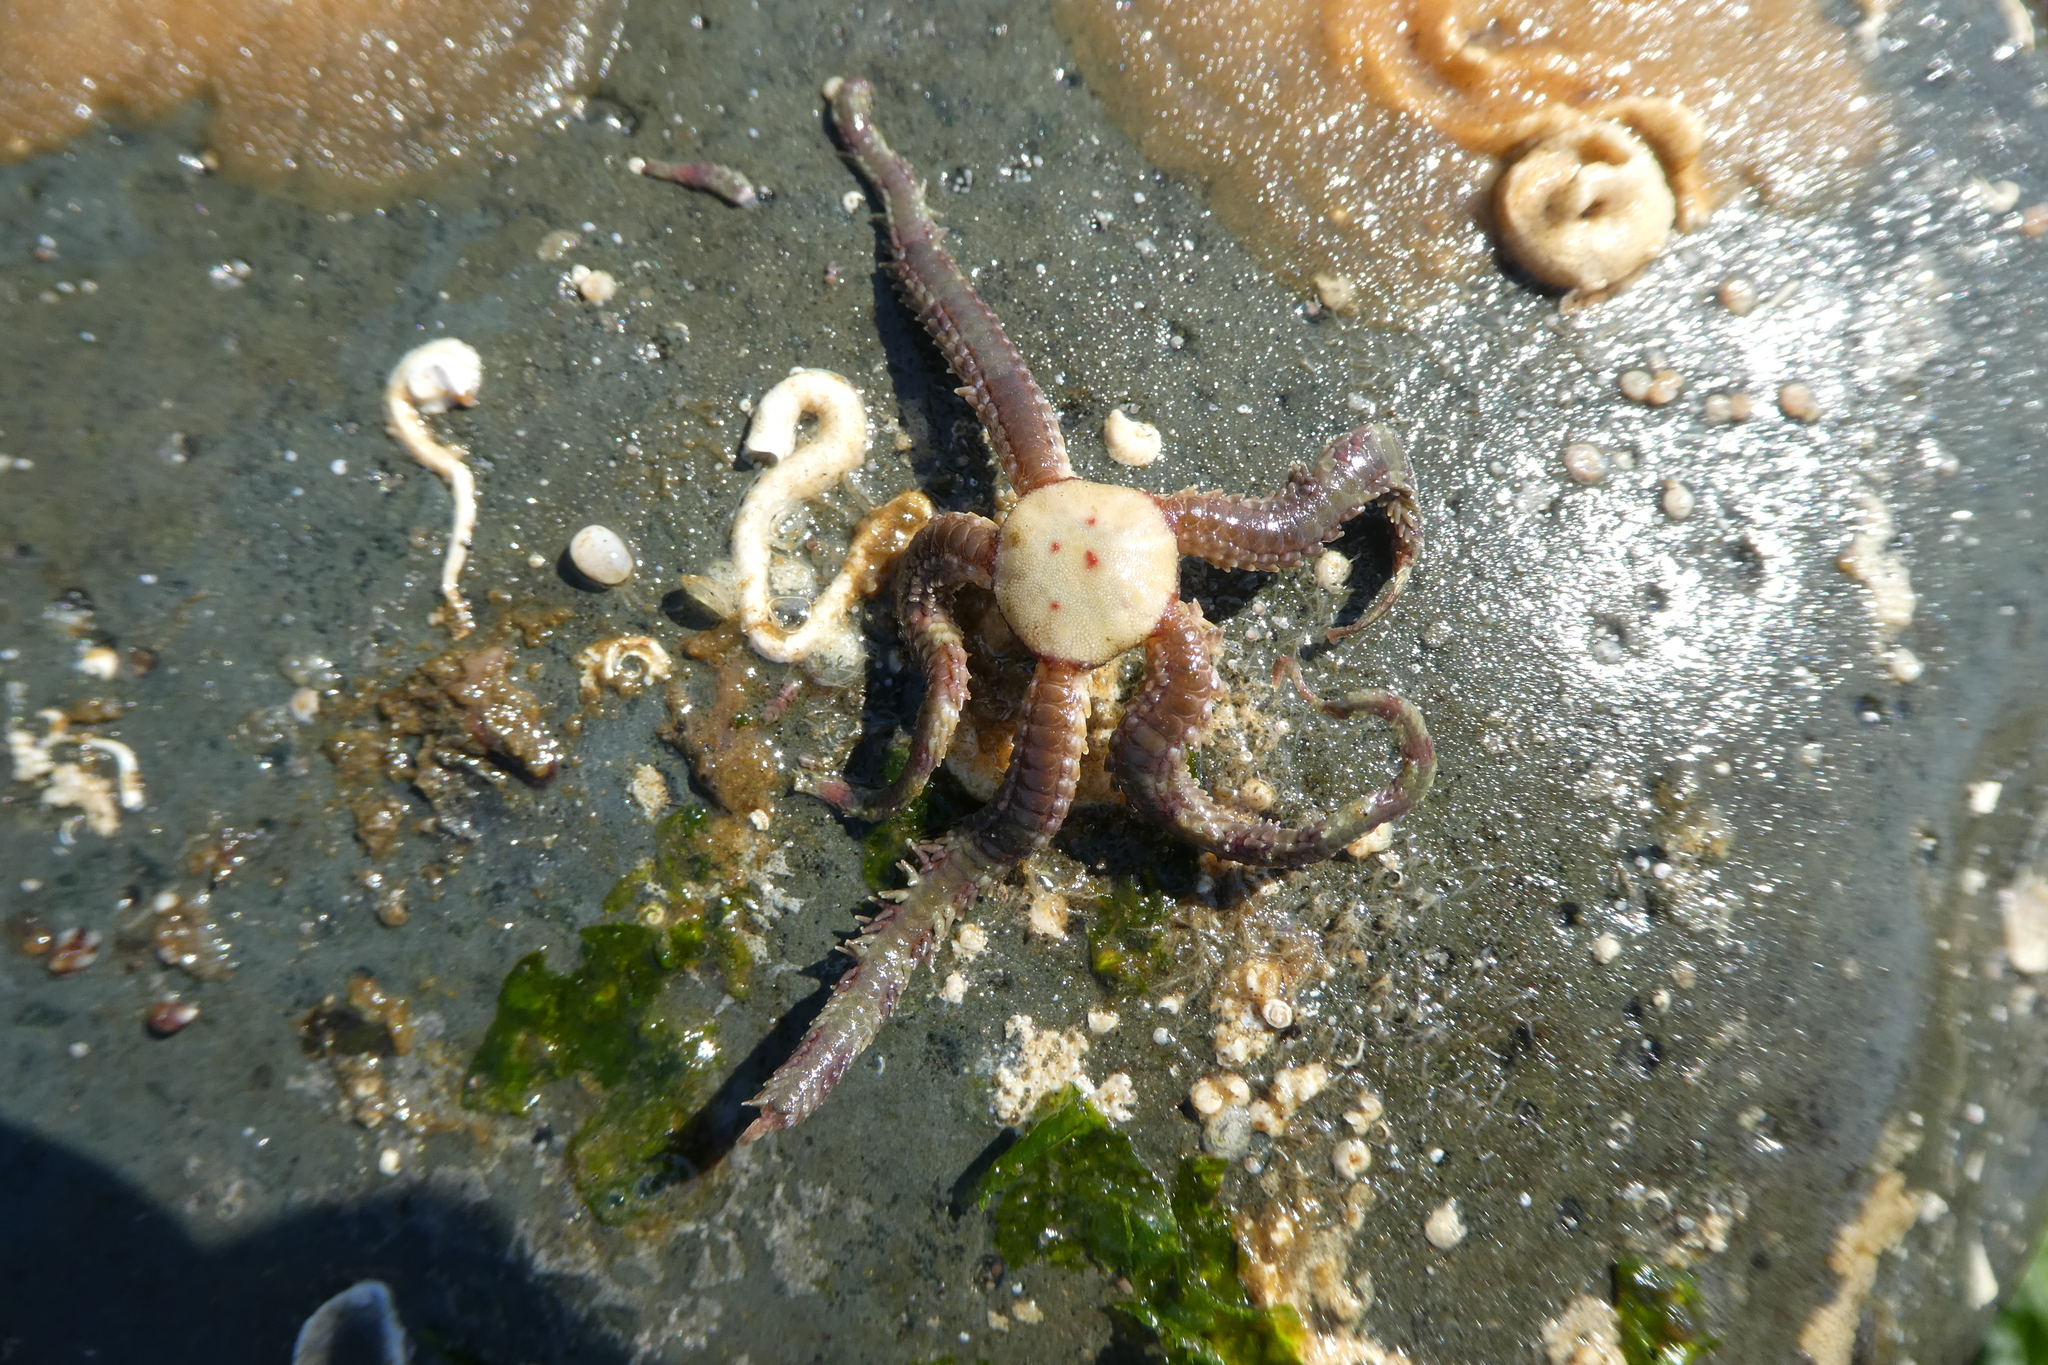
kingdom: Animalia
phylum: Echinodermata
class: Ophiuroidea
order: Amphilepidida
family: Ophiopholidae
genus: Ophiopholis
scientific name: Ophiopholis kennerlyi
